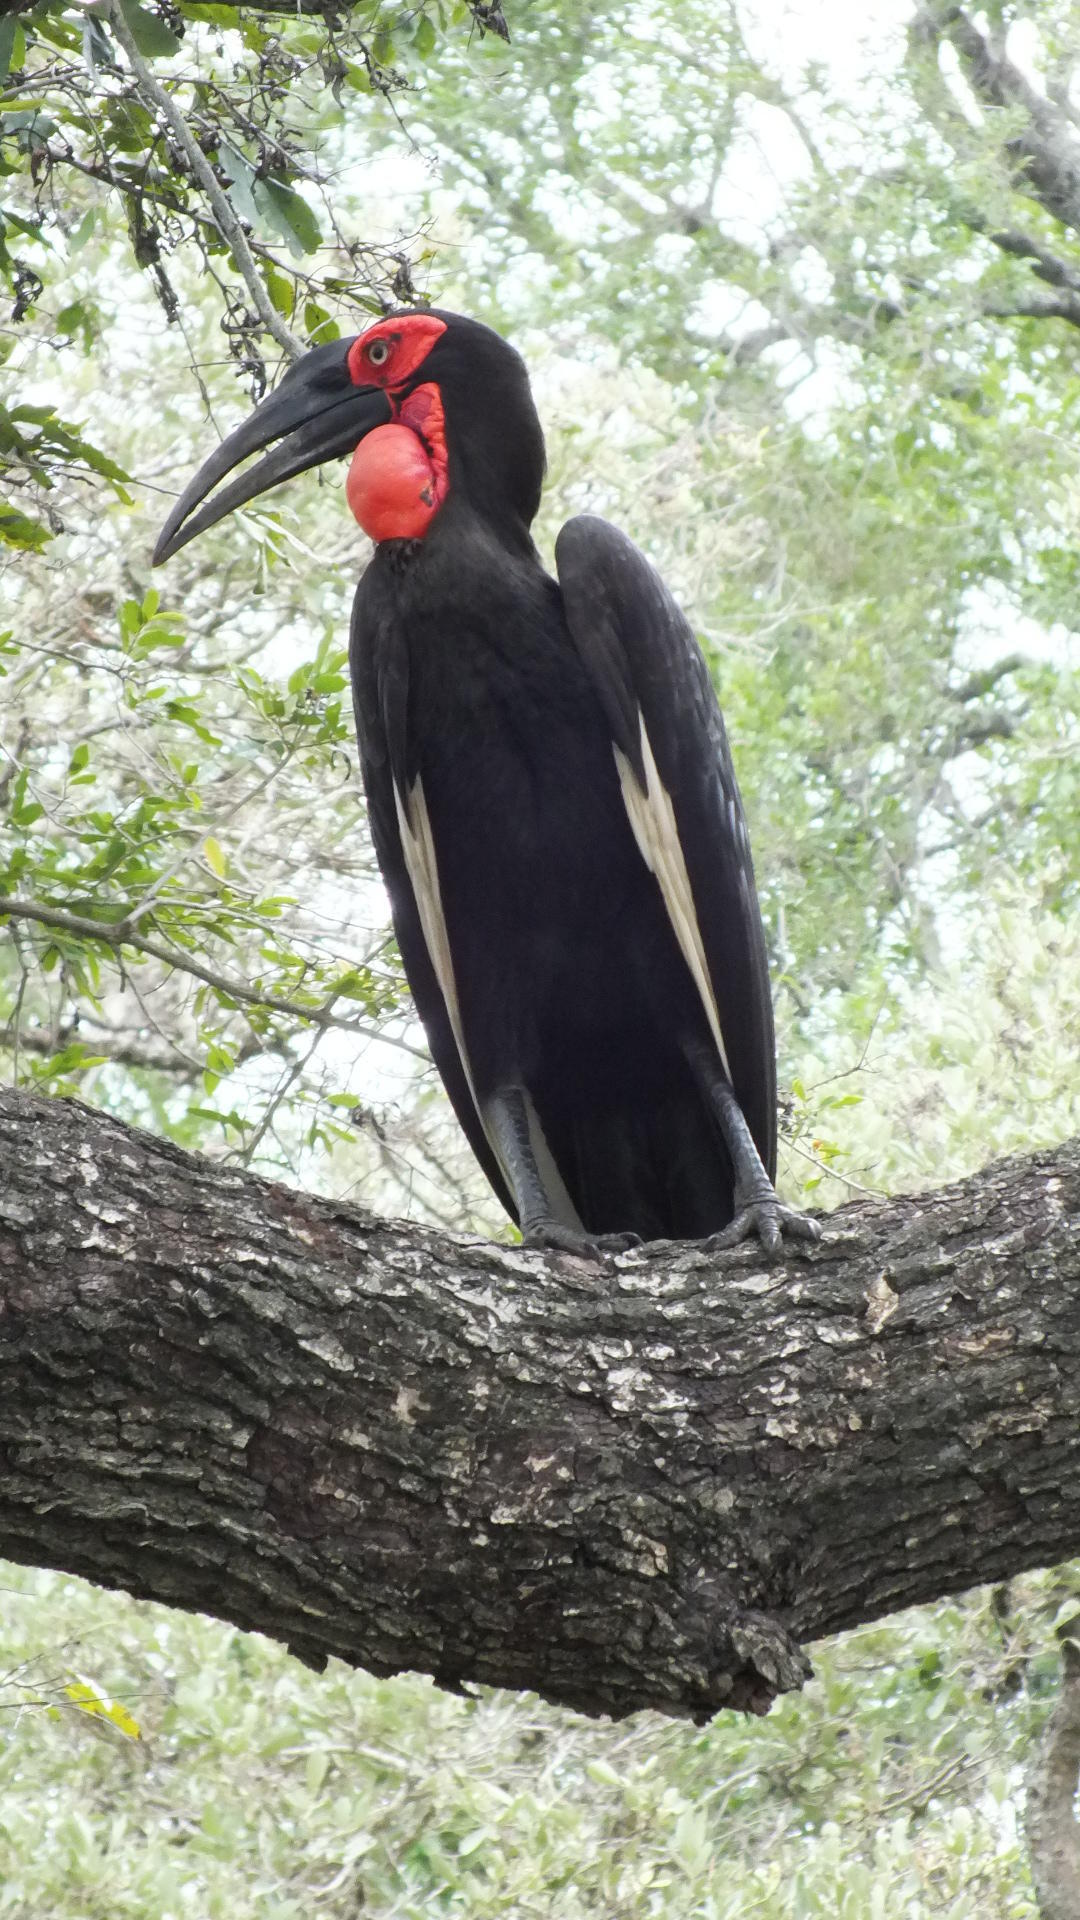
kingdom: Animalia
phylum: Chordata
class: Aves
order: Bucerotiformes
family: Bucorvidae
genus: Bucorvus
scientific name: Bucorvus leadbeateri
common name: Southern ground-hornbill
